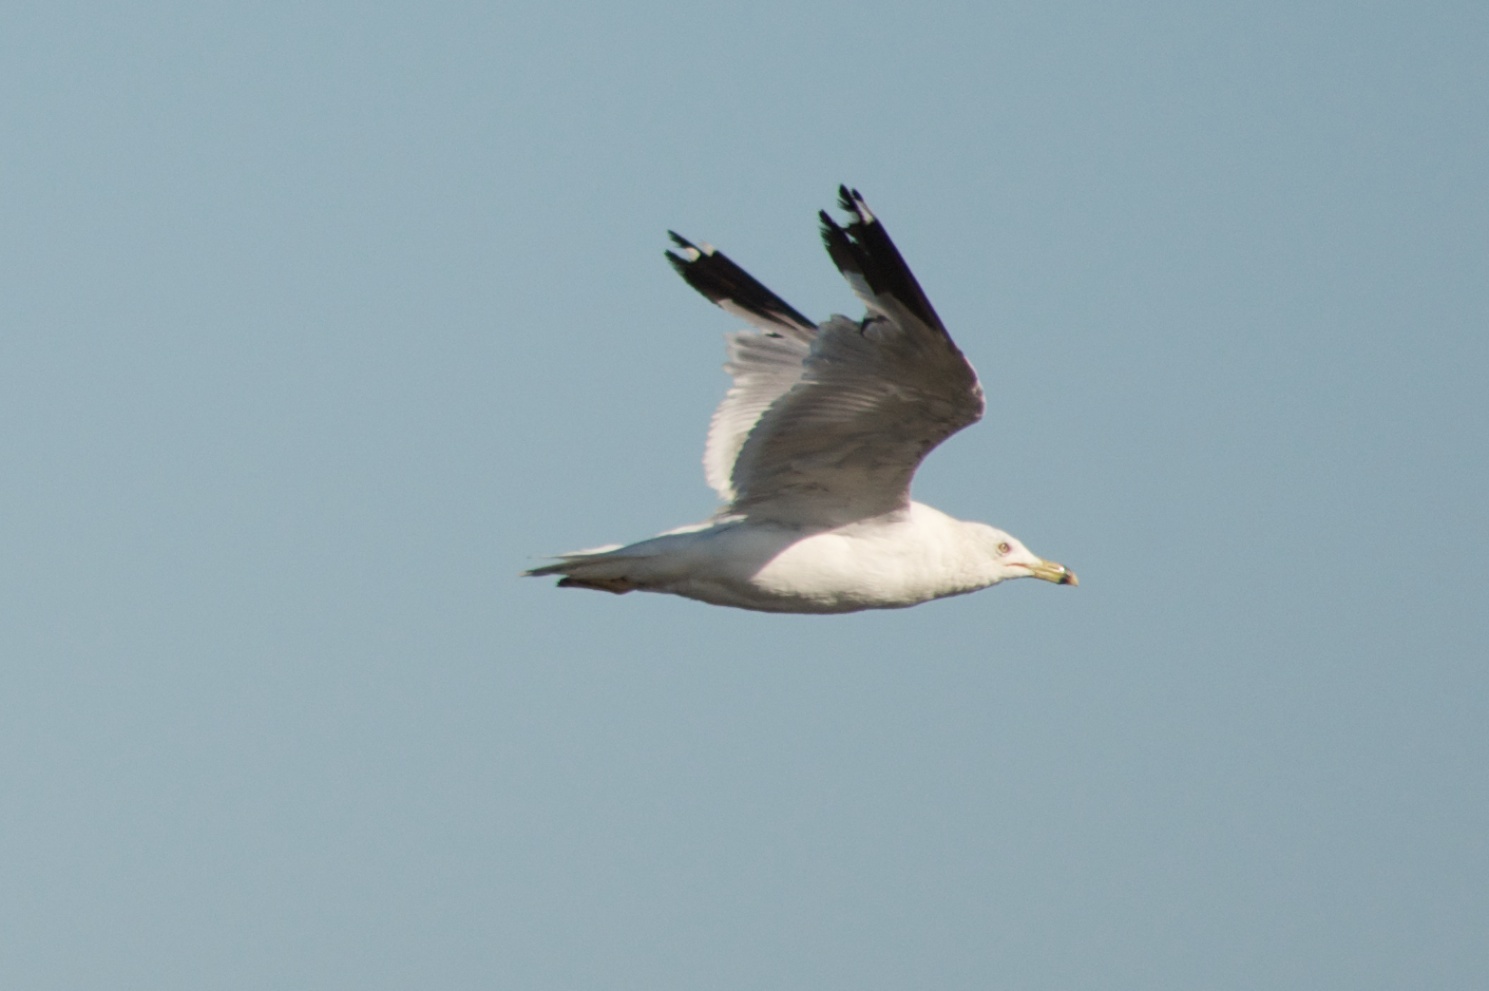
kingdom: Animalia
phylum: Chordata
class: Aves
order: Charadriiformes
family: Laridae
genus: Larus
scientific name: Larus delawarensis
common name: Ring-billed gull
